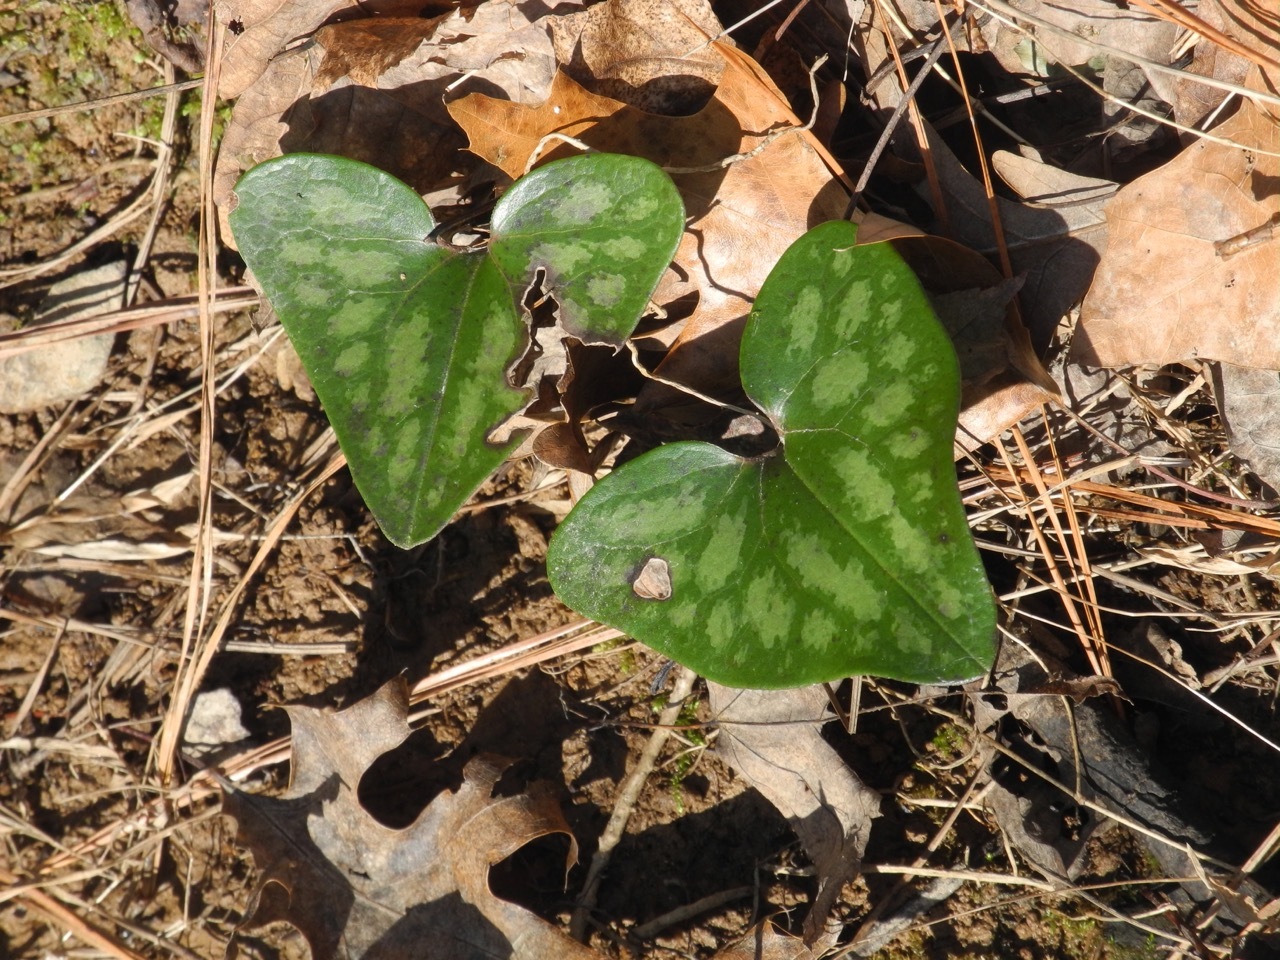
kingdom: Plantae
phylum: Tracheophyta
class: Magnoliopsida
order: Piperales
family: Aristolochiaceae
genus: Hexastylis
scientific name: Hexastylis arifolia
